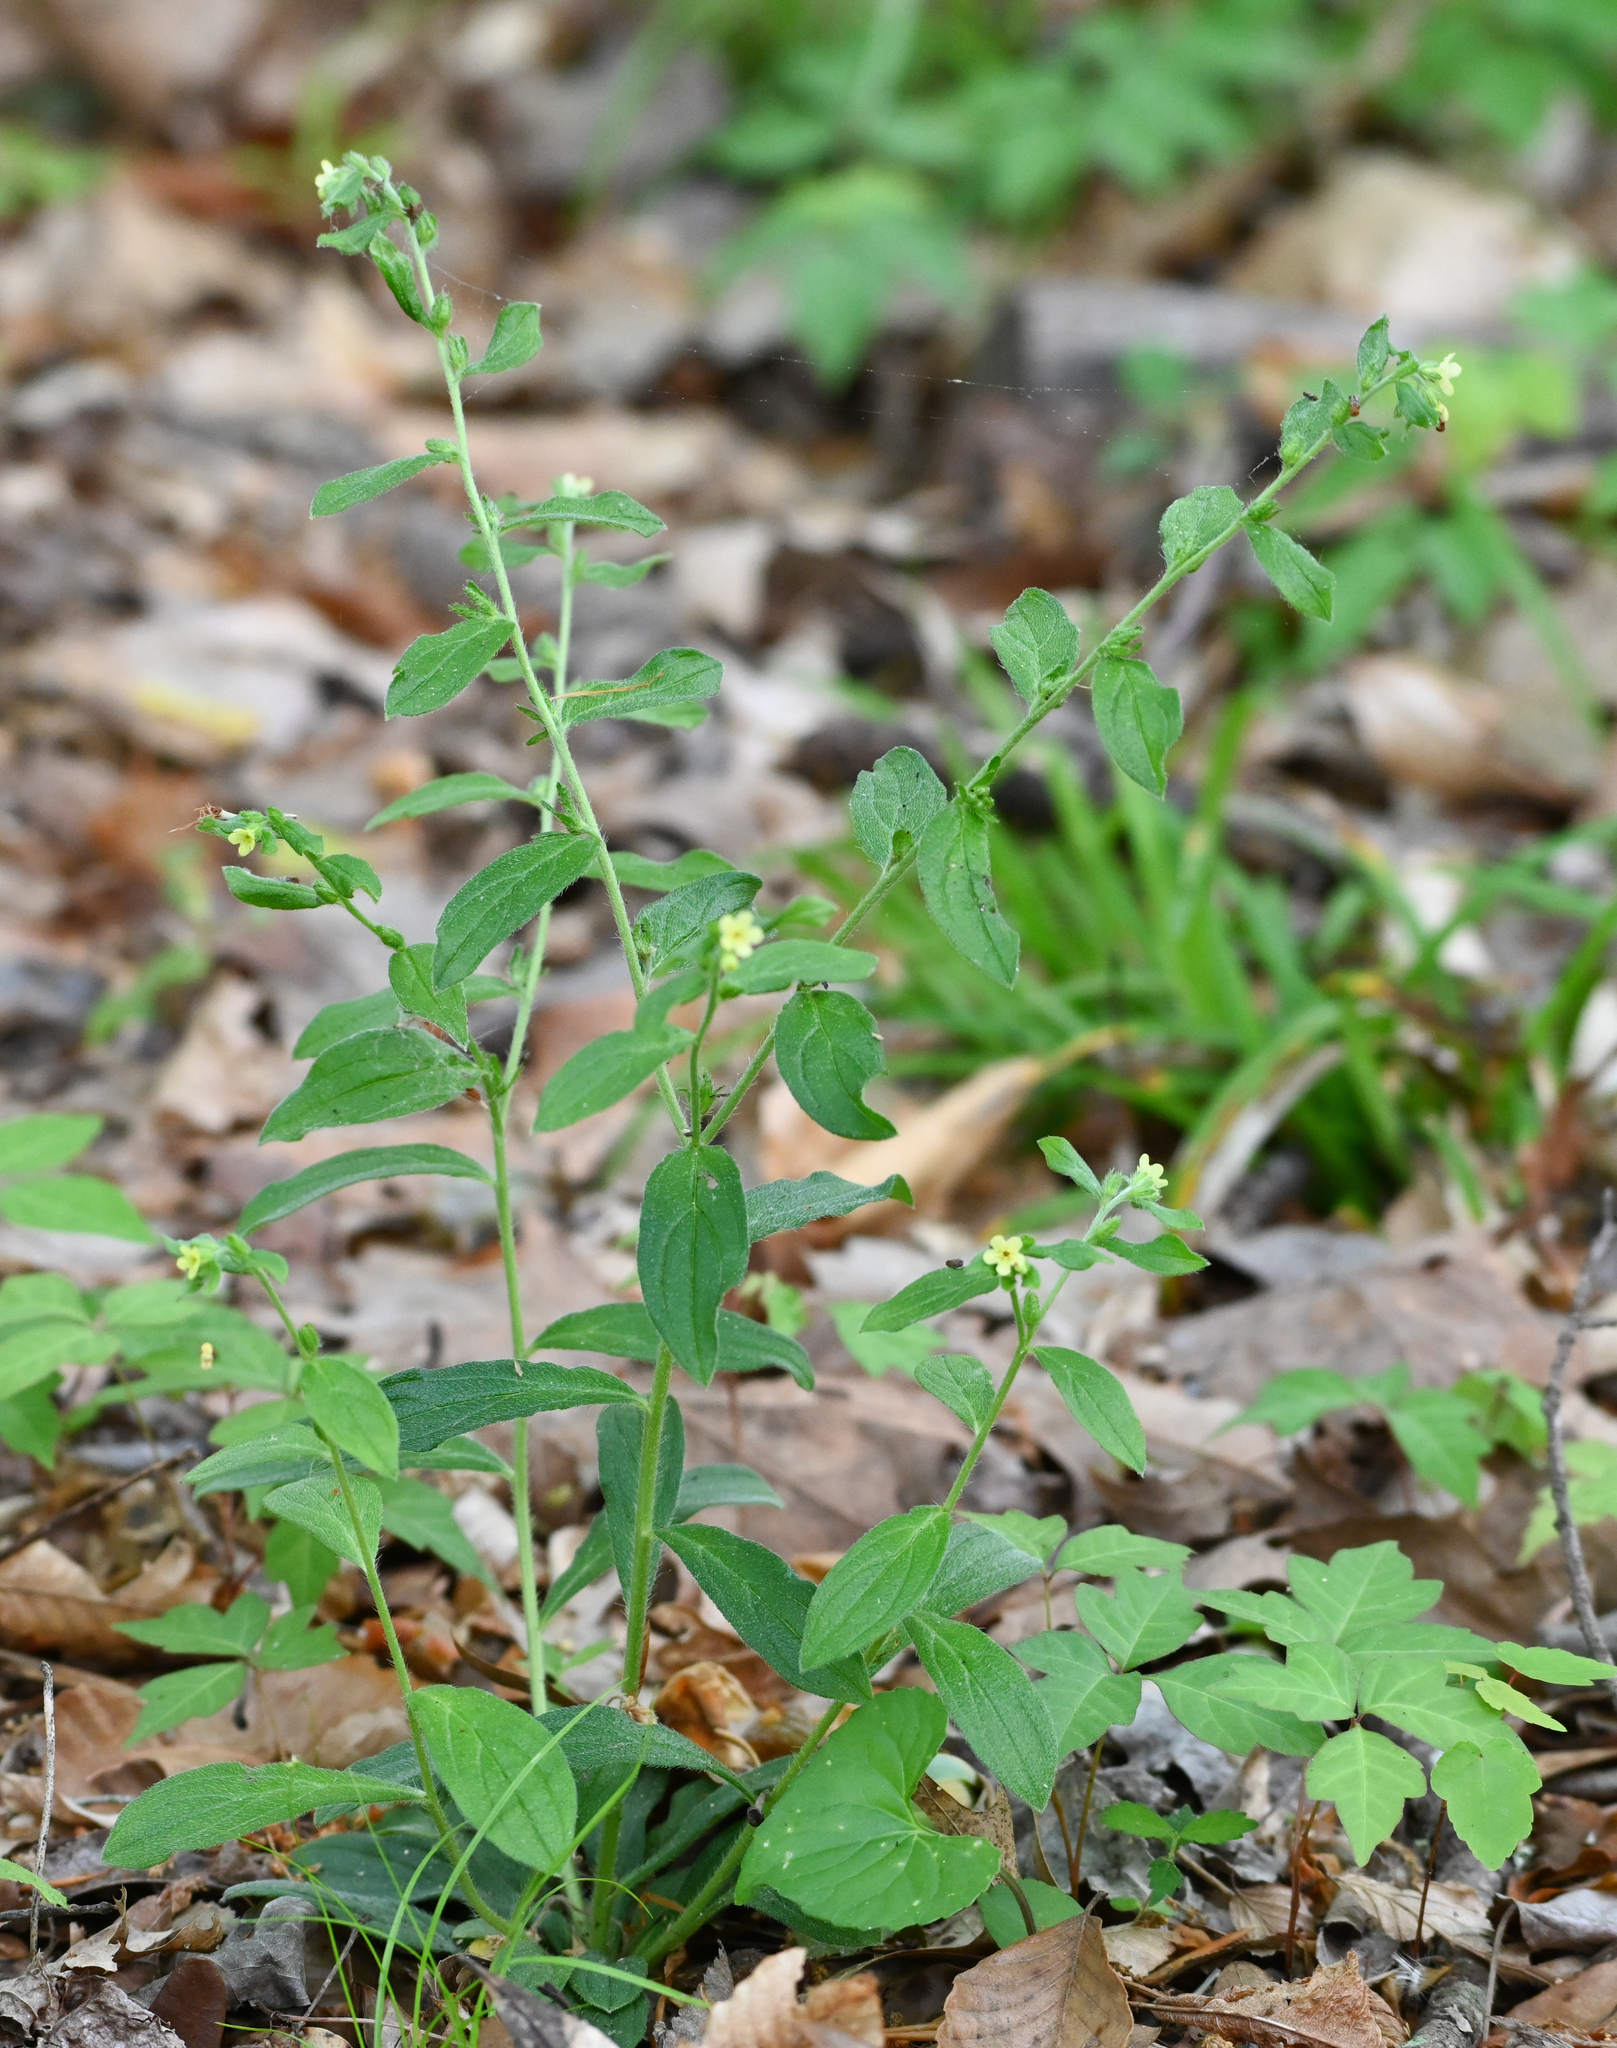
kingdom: Plantae
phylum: Tracheophyta
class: Magnoliopsida
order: Boraginales
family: Boraginaceae
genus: Lithospermum
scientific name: Lithospermum tuberosum
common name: Southern stoneseed
